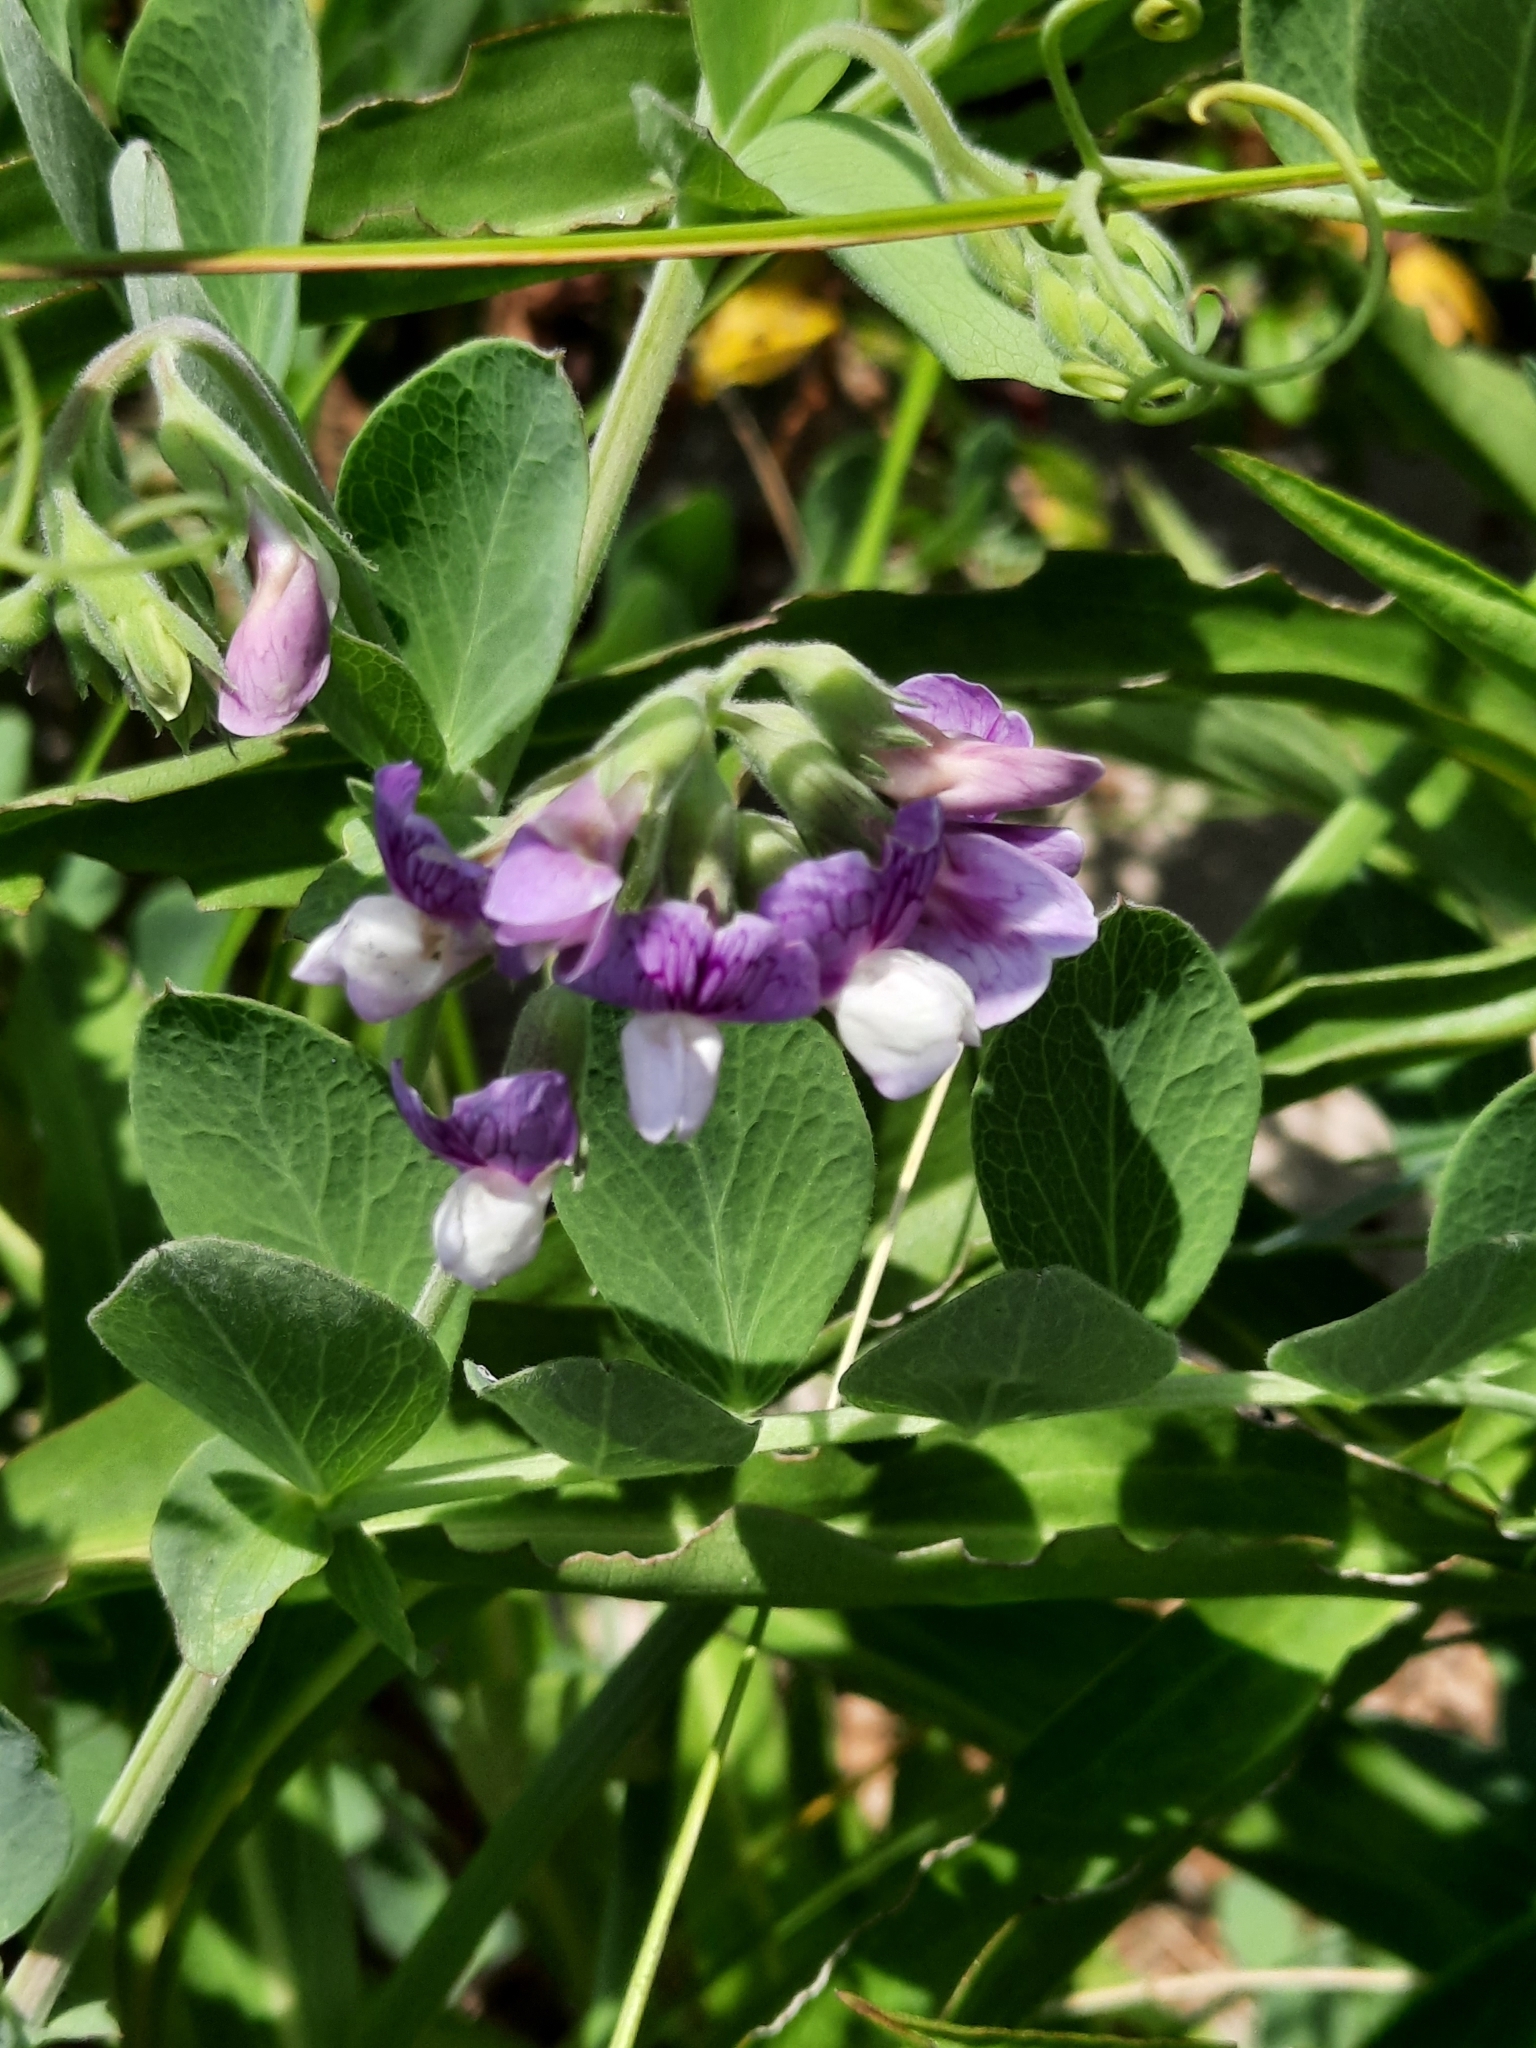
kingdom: Plantae
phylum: Tracheophyta
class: Magnoliopsida
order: Fabales
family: Fabaceae
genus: Lathyrus
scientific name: Lathyrus japonicus
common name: Sea pea
